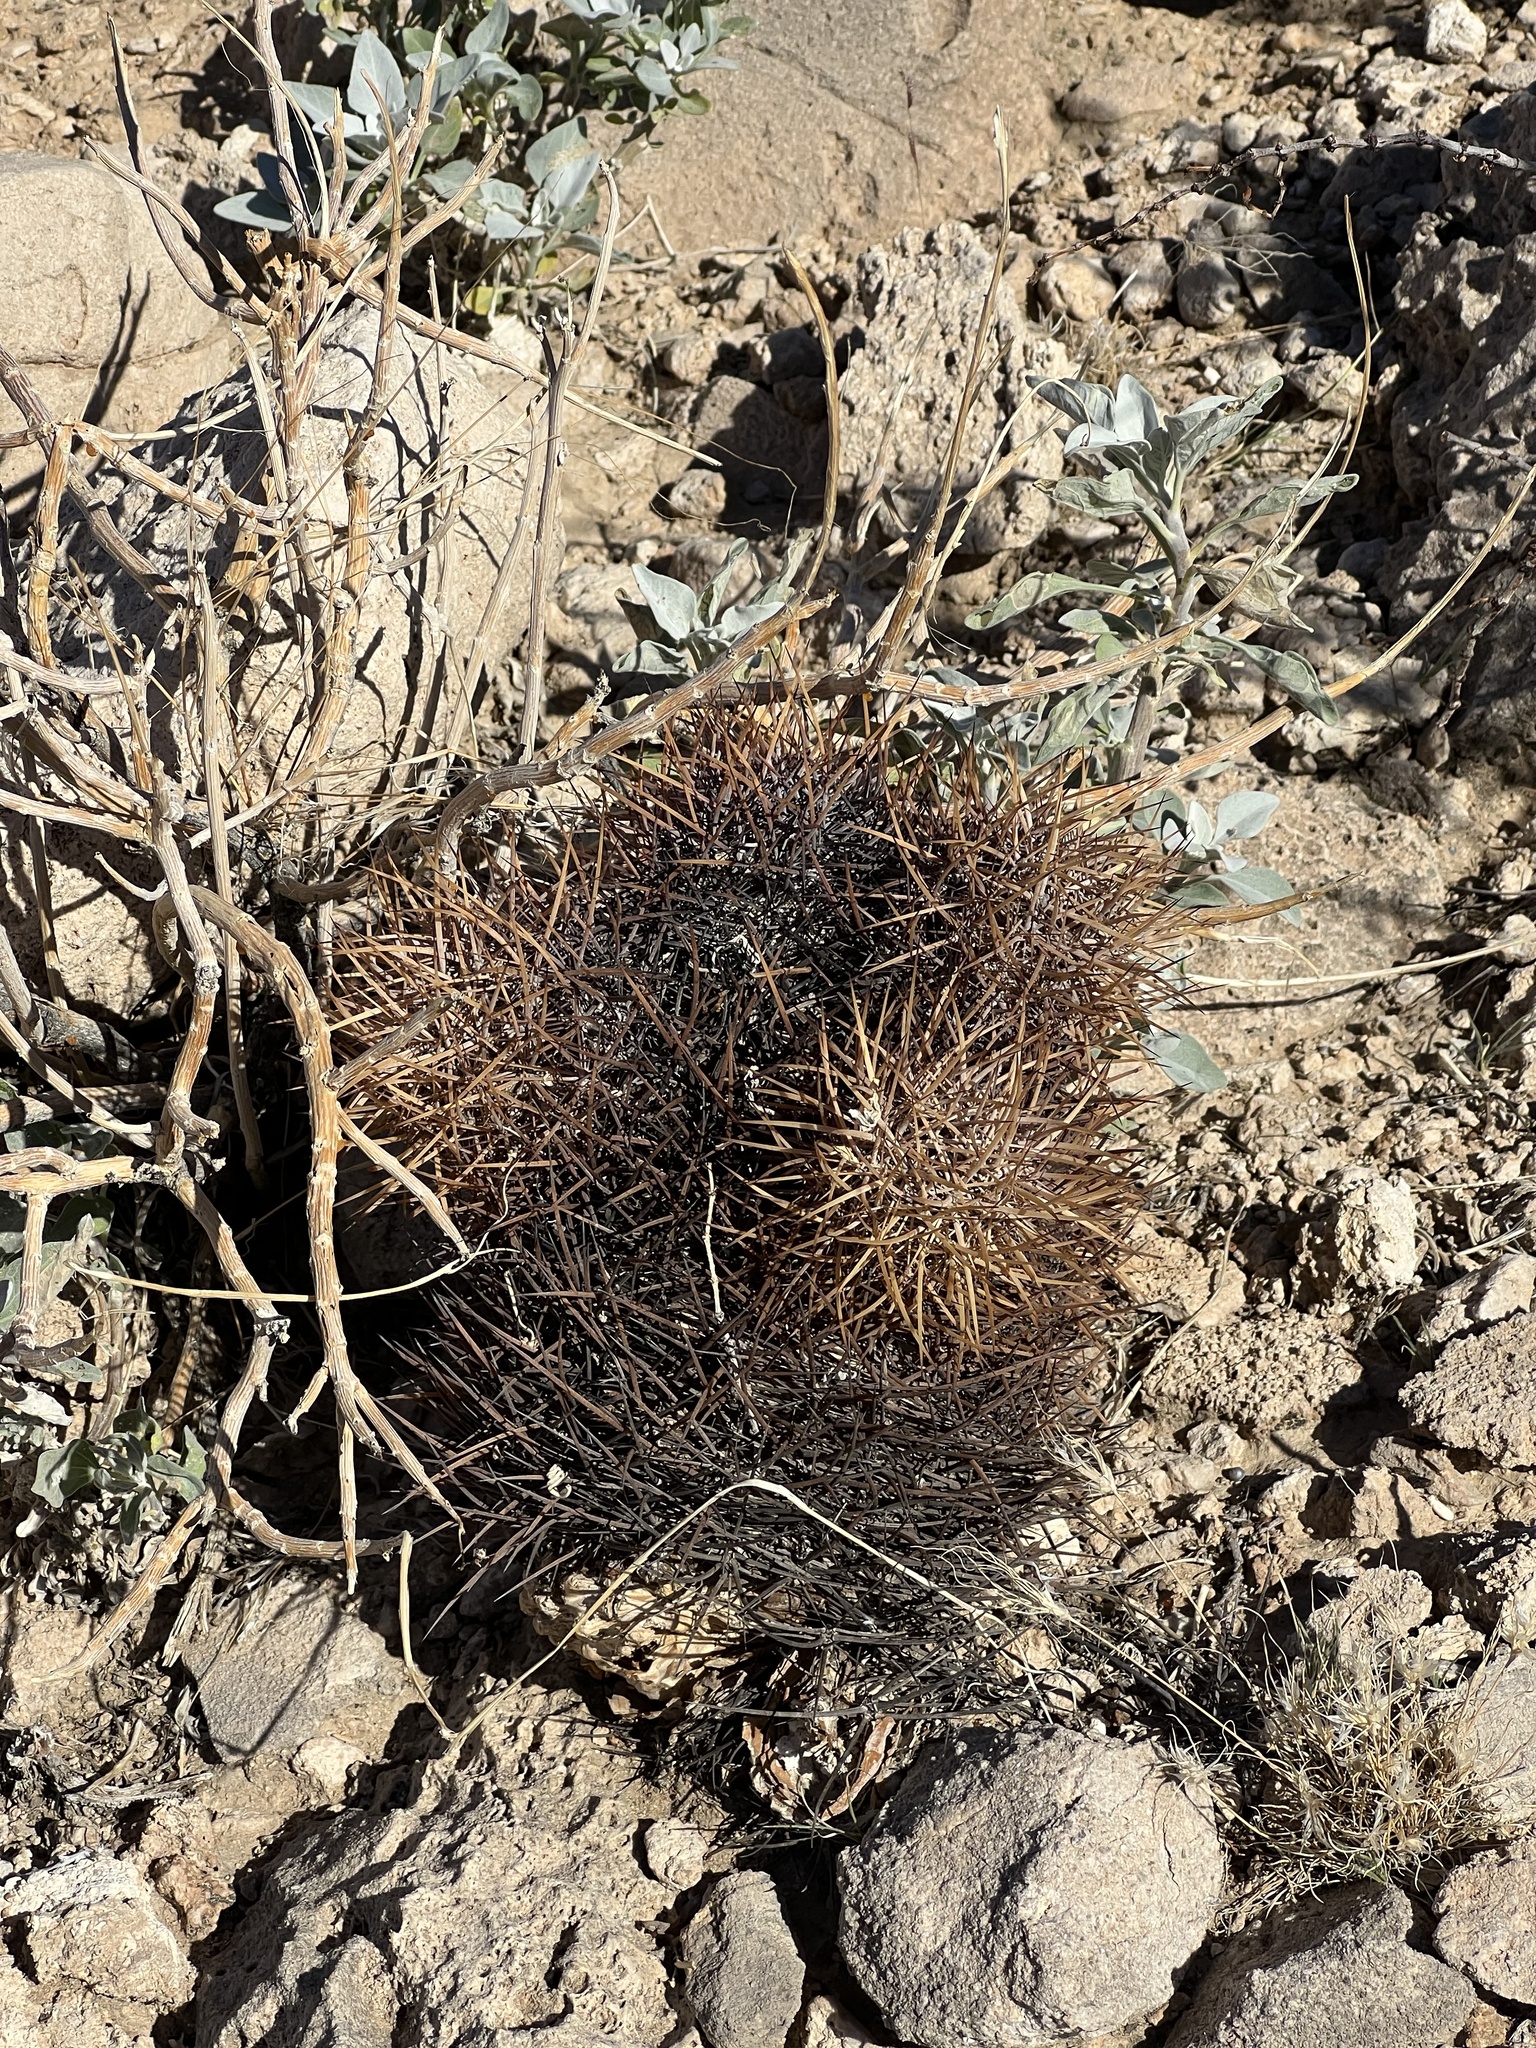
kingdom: Plantae
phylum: Tracheophyta
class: Magnoliopsida
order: Caryophyllales
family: Cactaceae
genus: Sclerocactus
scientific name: Sclerocactus johnsonii
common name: Eight-spine fishhook cactus
